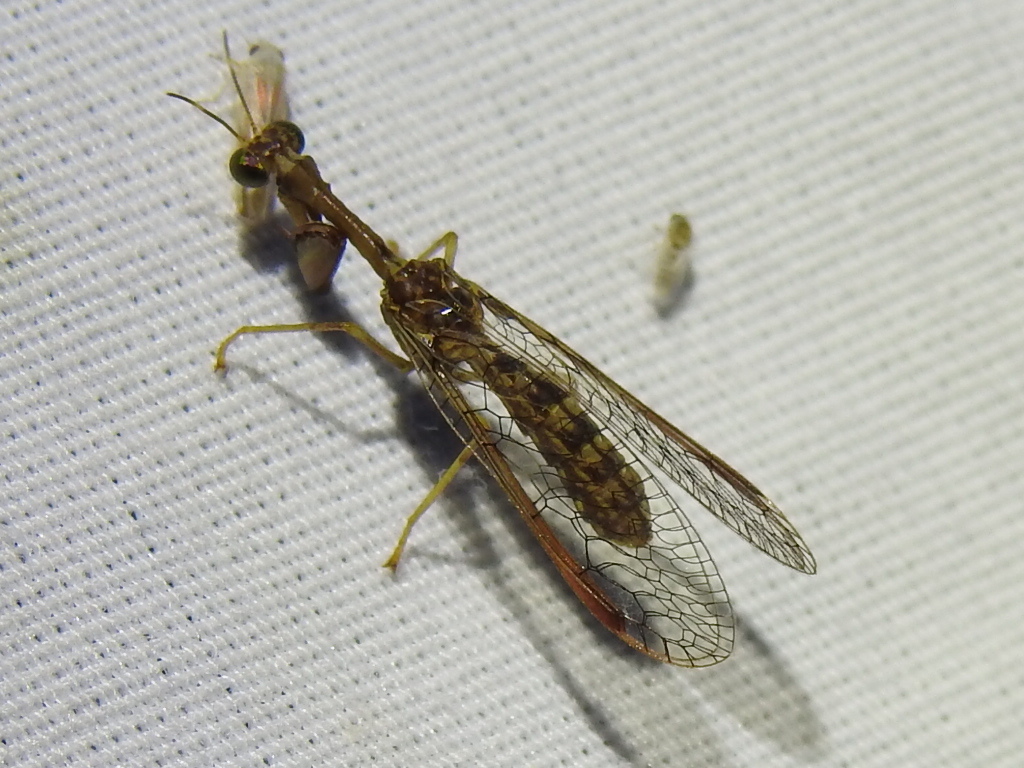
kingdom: Animalia
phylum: Arthropoda
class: Insecta
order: Neuroptera
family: Mantispidae
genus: Dicromantispa
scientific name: Dicromantispa sayi
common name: Say's mantidfly
